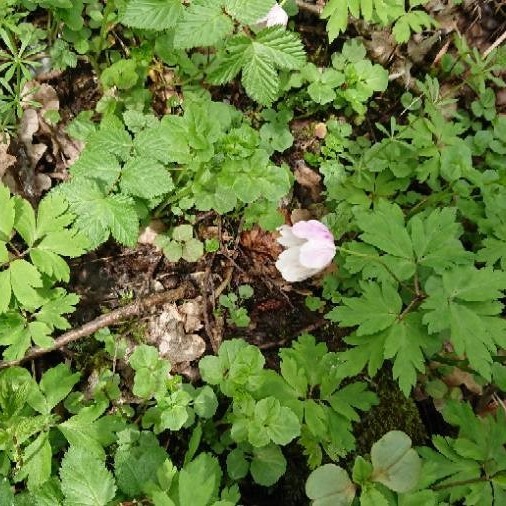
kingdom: Plantae
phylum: Tracheophyta
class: Magnoliopsida
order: Ranunculales
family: Ranunculaceae
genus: Anemone
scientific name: Anemone nemorosa
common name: Wood anemone
